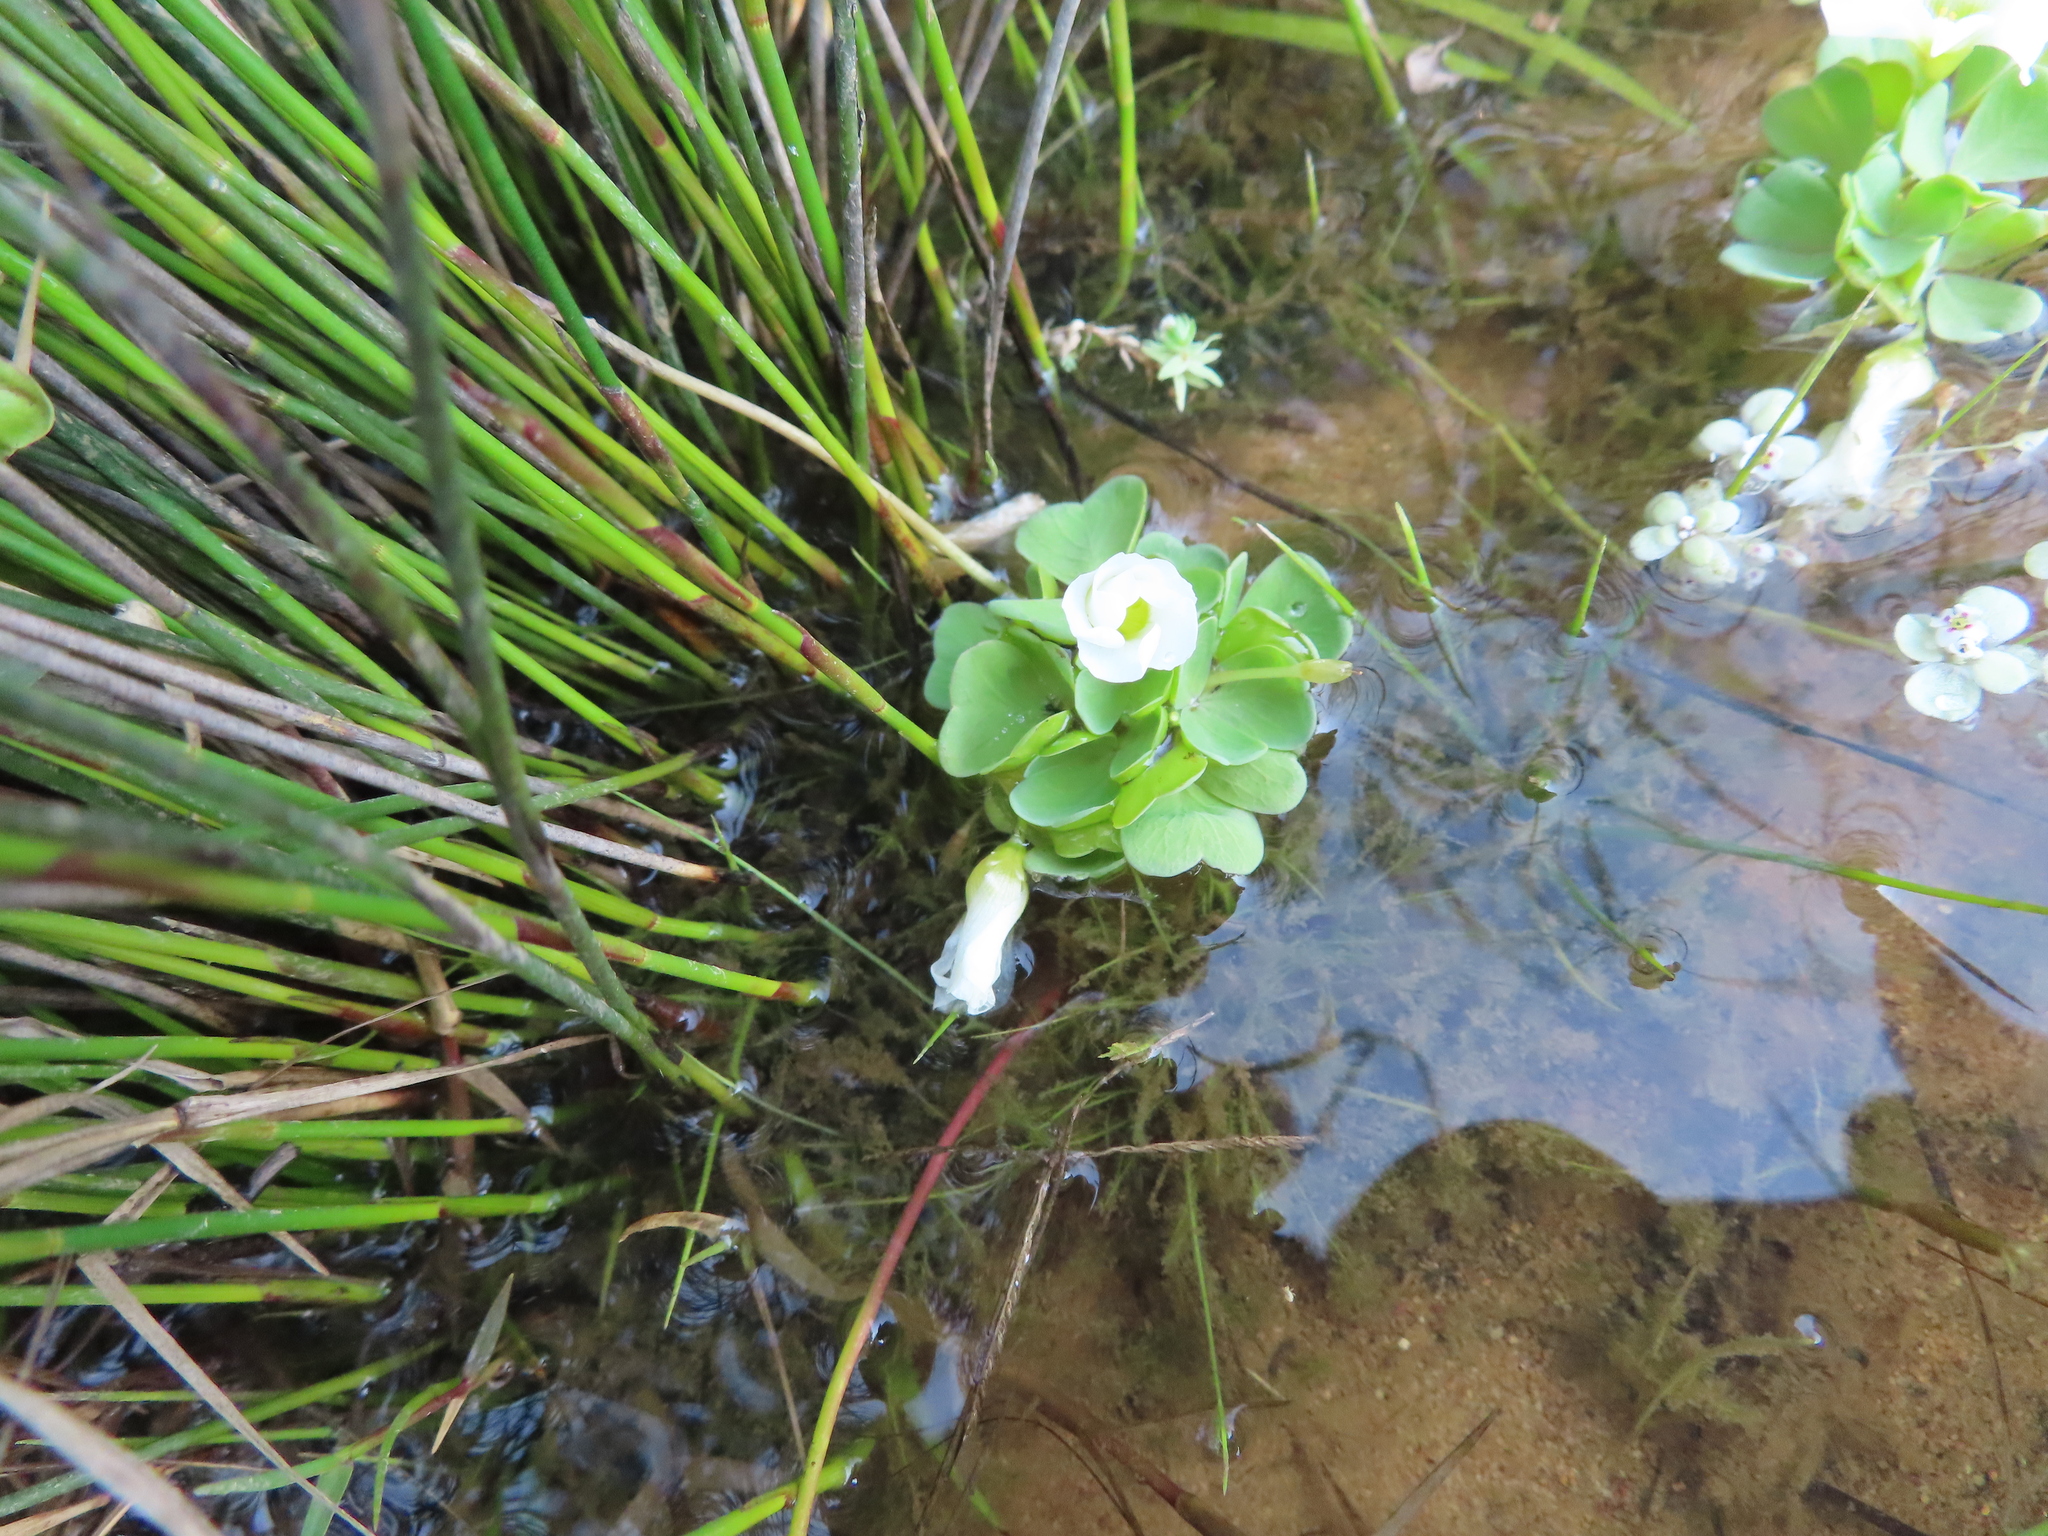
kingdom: Plantae
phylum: Tracheophyta
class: Magnoliopsida
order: Oxalidales
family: Oxalidaceae
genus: Oxalis
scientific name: Oxalis natans
